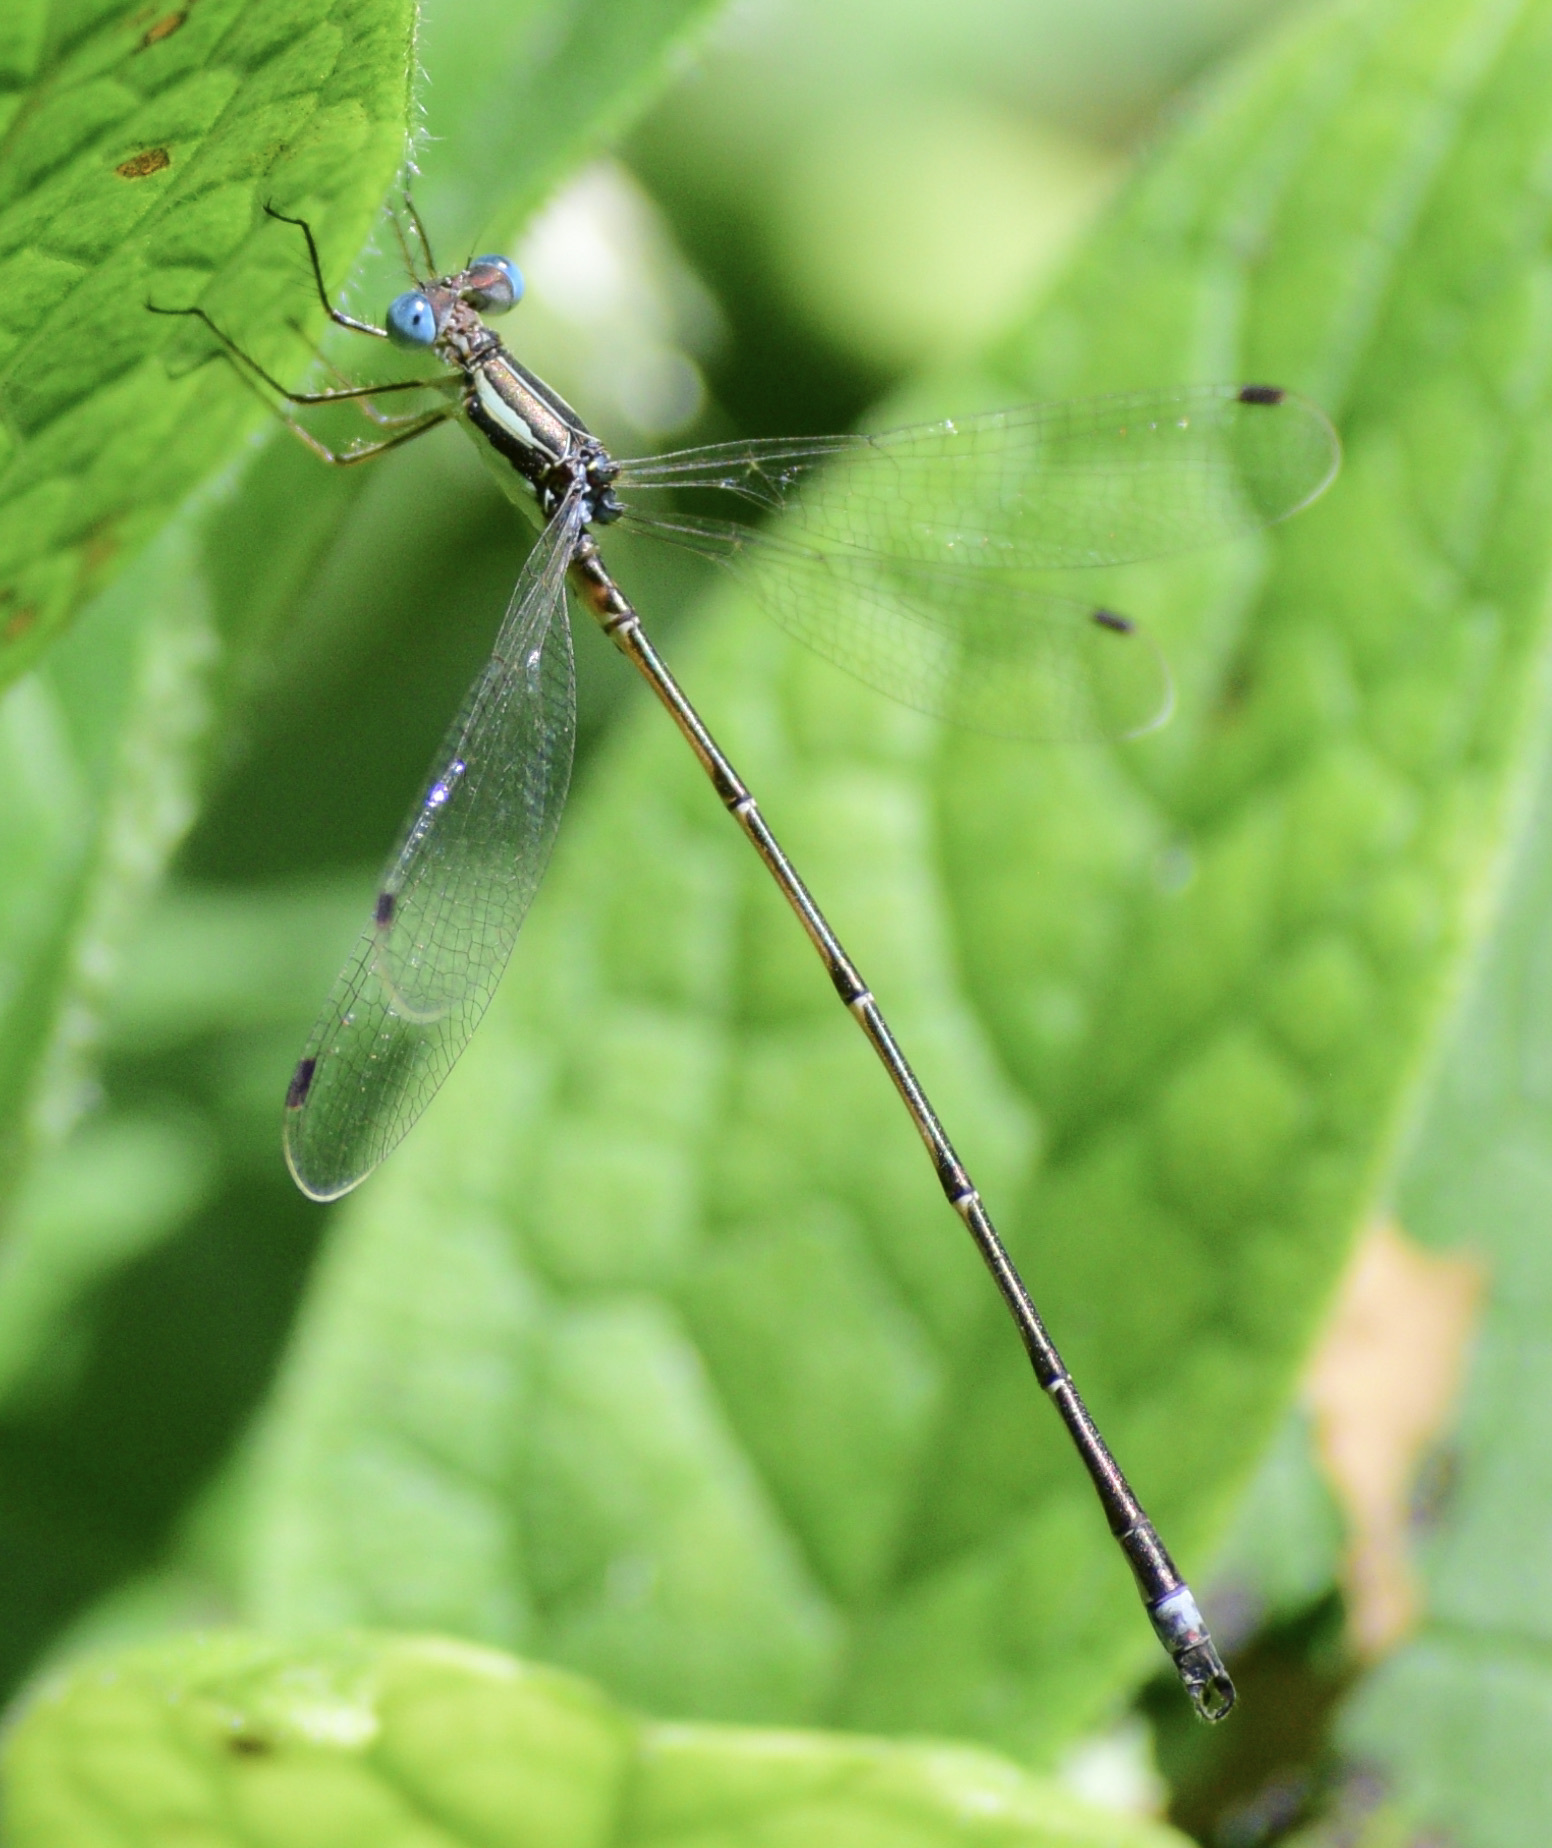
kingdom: Animalia
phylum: Arthropoda
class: Insecta
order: Odonata
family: Lestidae
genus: Lestes
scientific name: Lestes rectangularis
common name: Slender spreadwing
